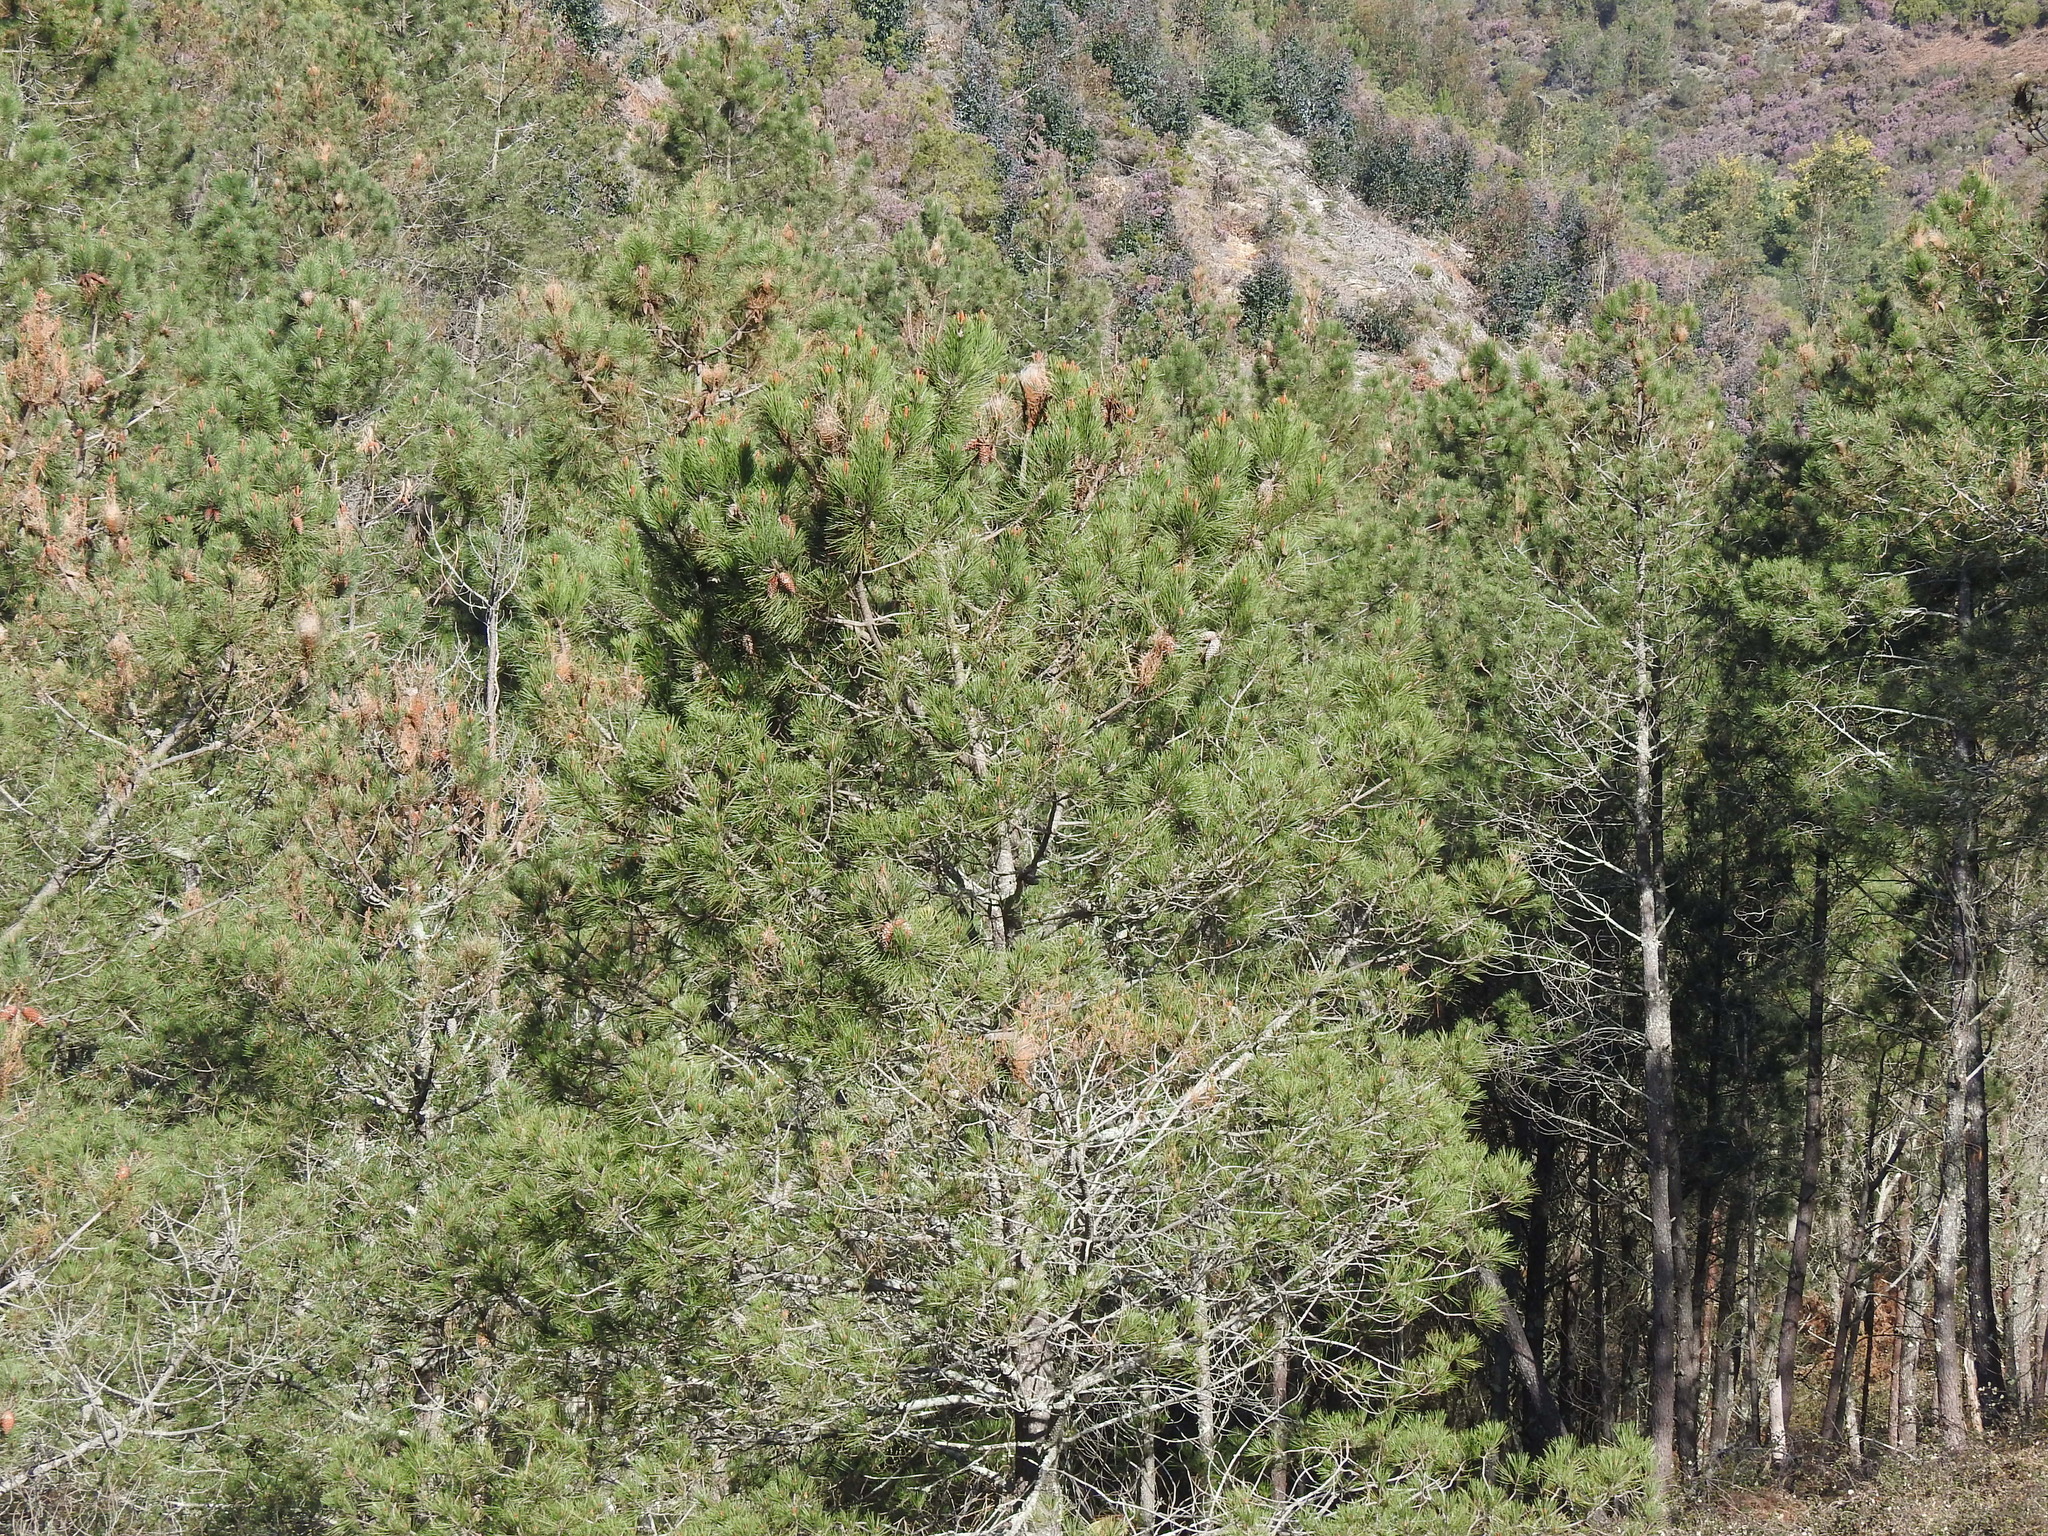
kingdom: Plantae
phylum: Tracheophyta
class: Pinopsida
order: Pinales
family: Pinaceae
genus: Pinus
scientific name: Pinus pinaster
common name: Maritime pine
